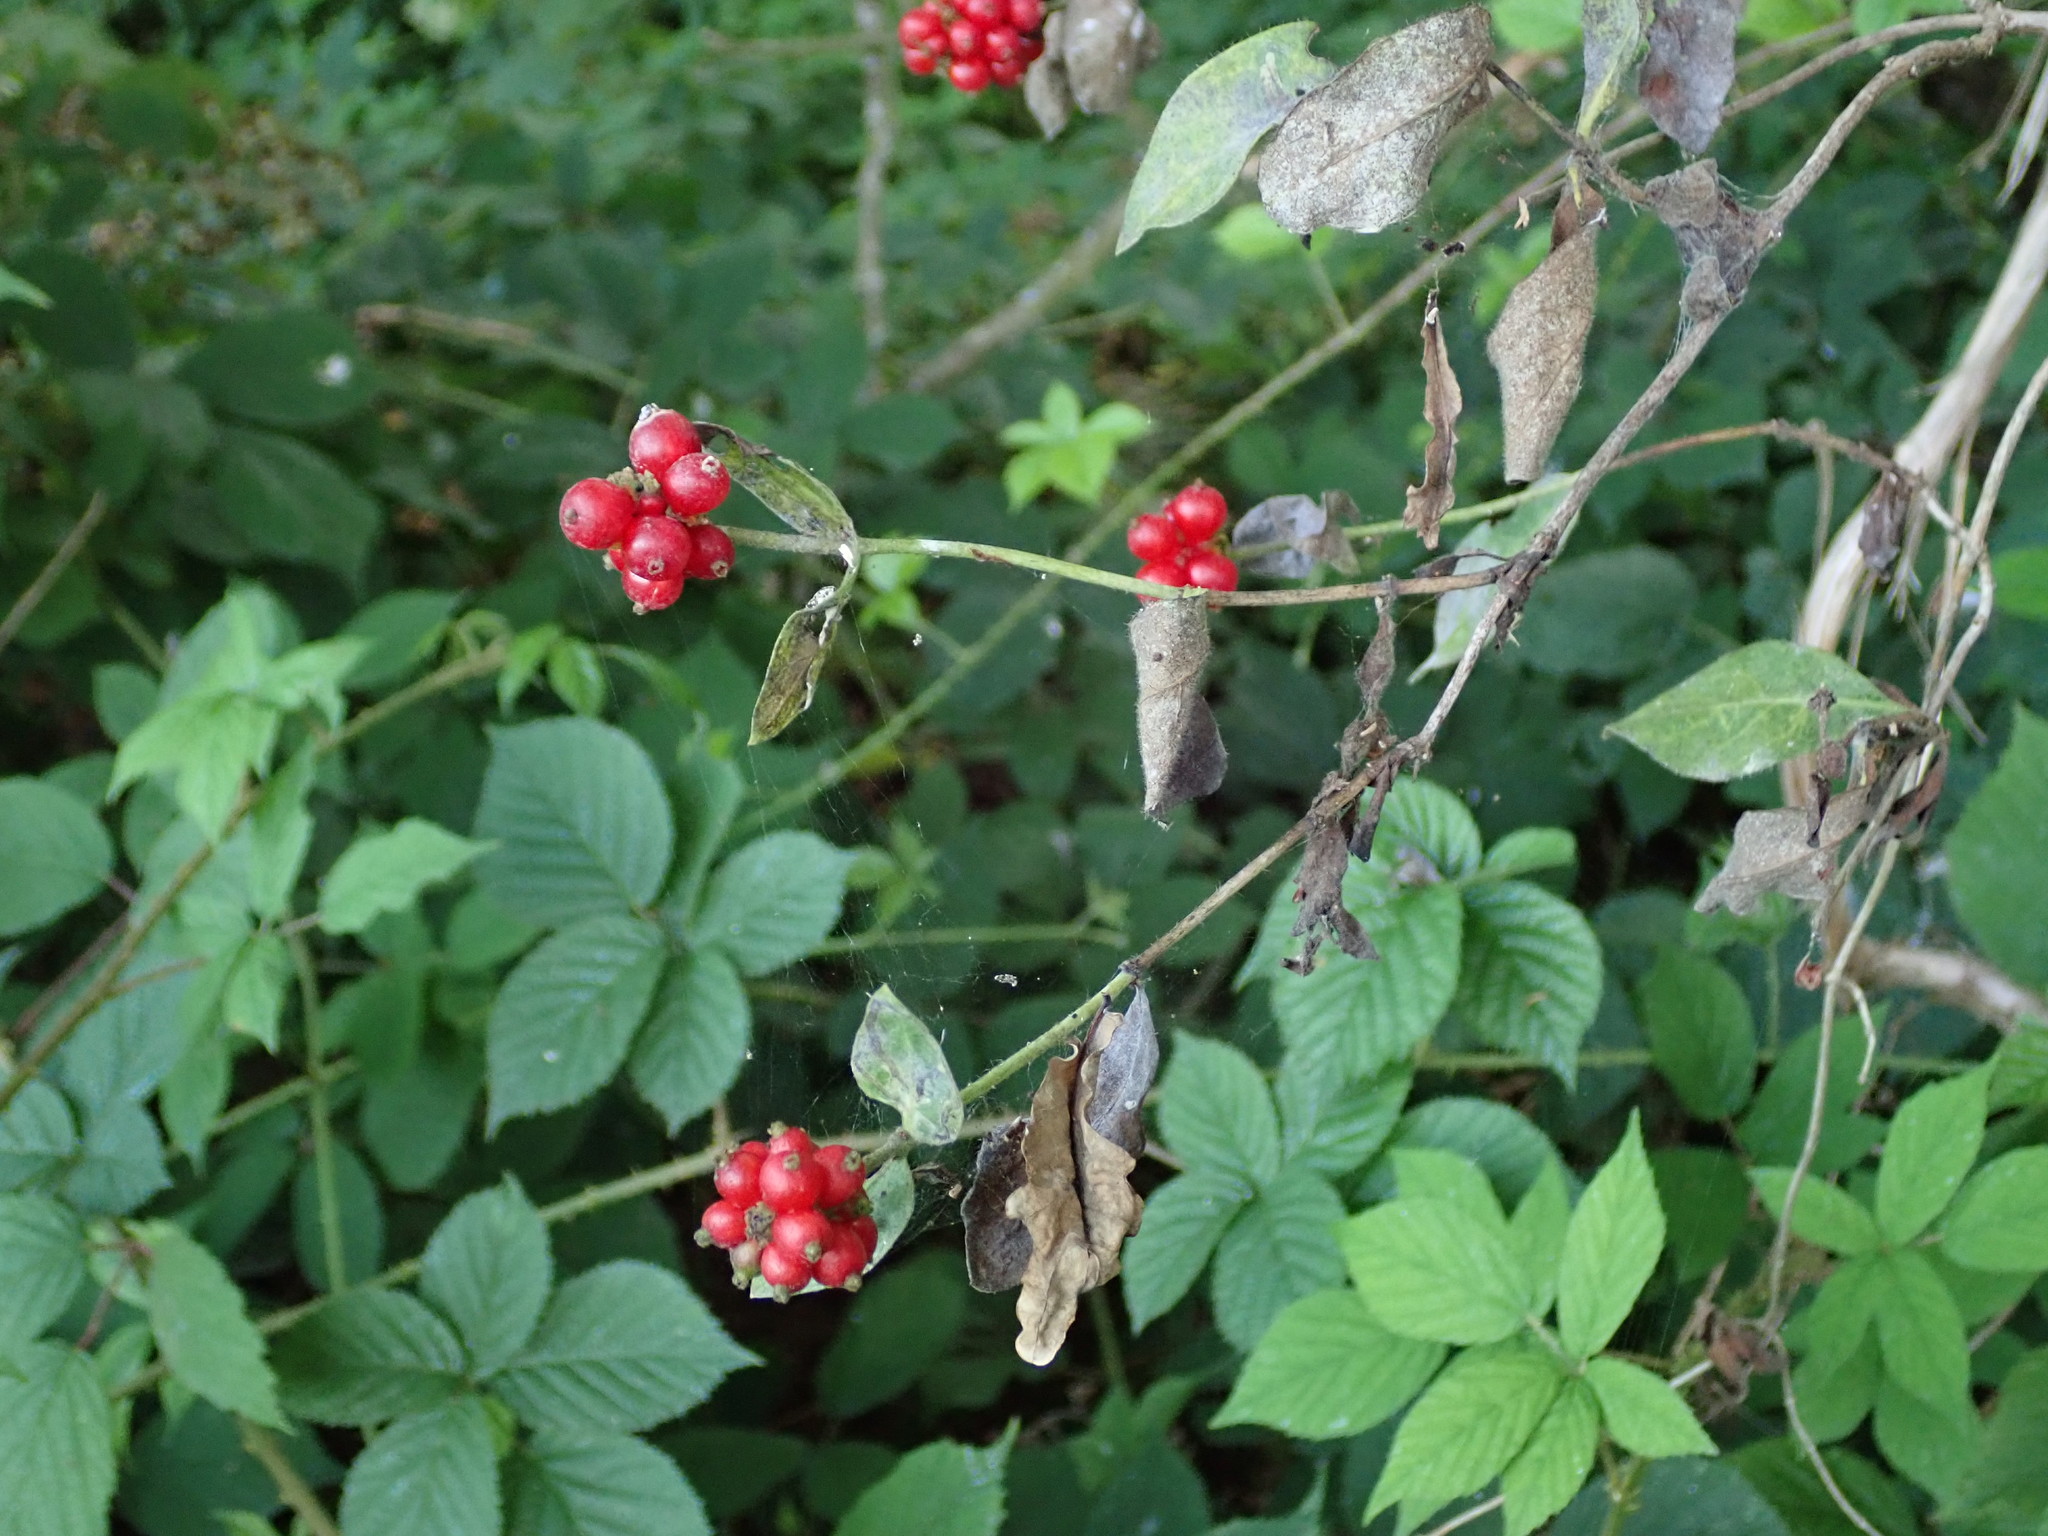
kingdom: Plantae
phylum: Tracheophyta
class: Magnoliopsida
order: Dipsacales
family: Caprifoliaceae
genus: Lonicera
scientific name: Lonicera periclymenum
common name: European honeysuckle
